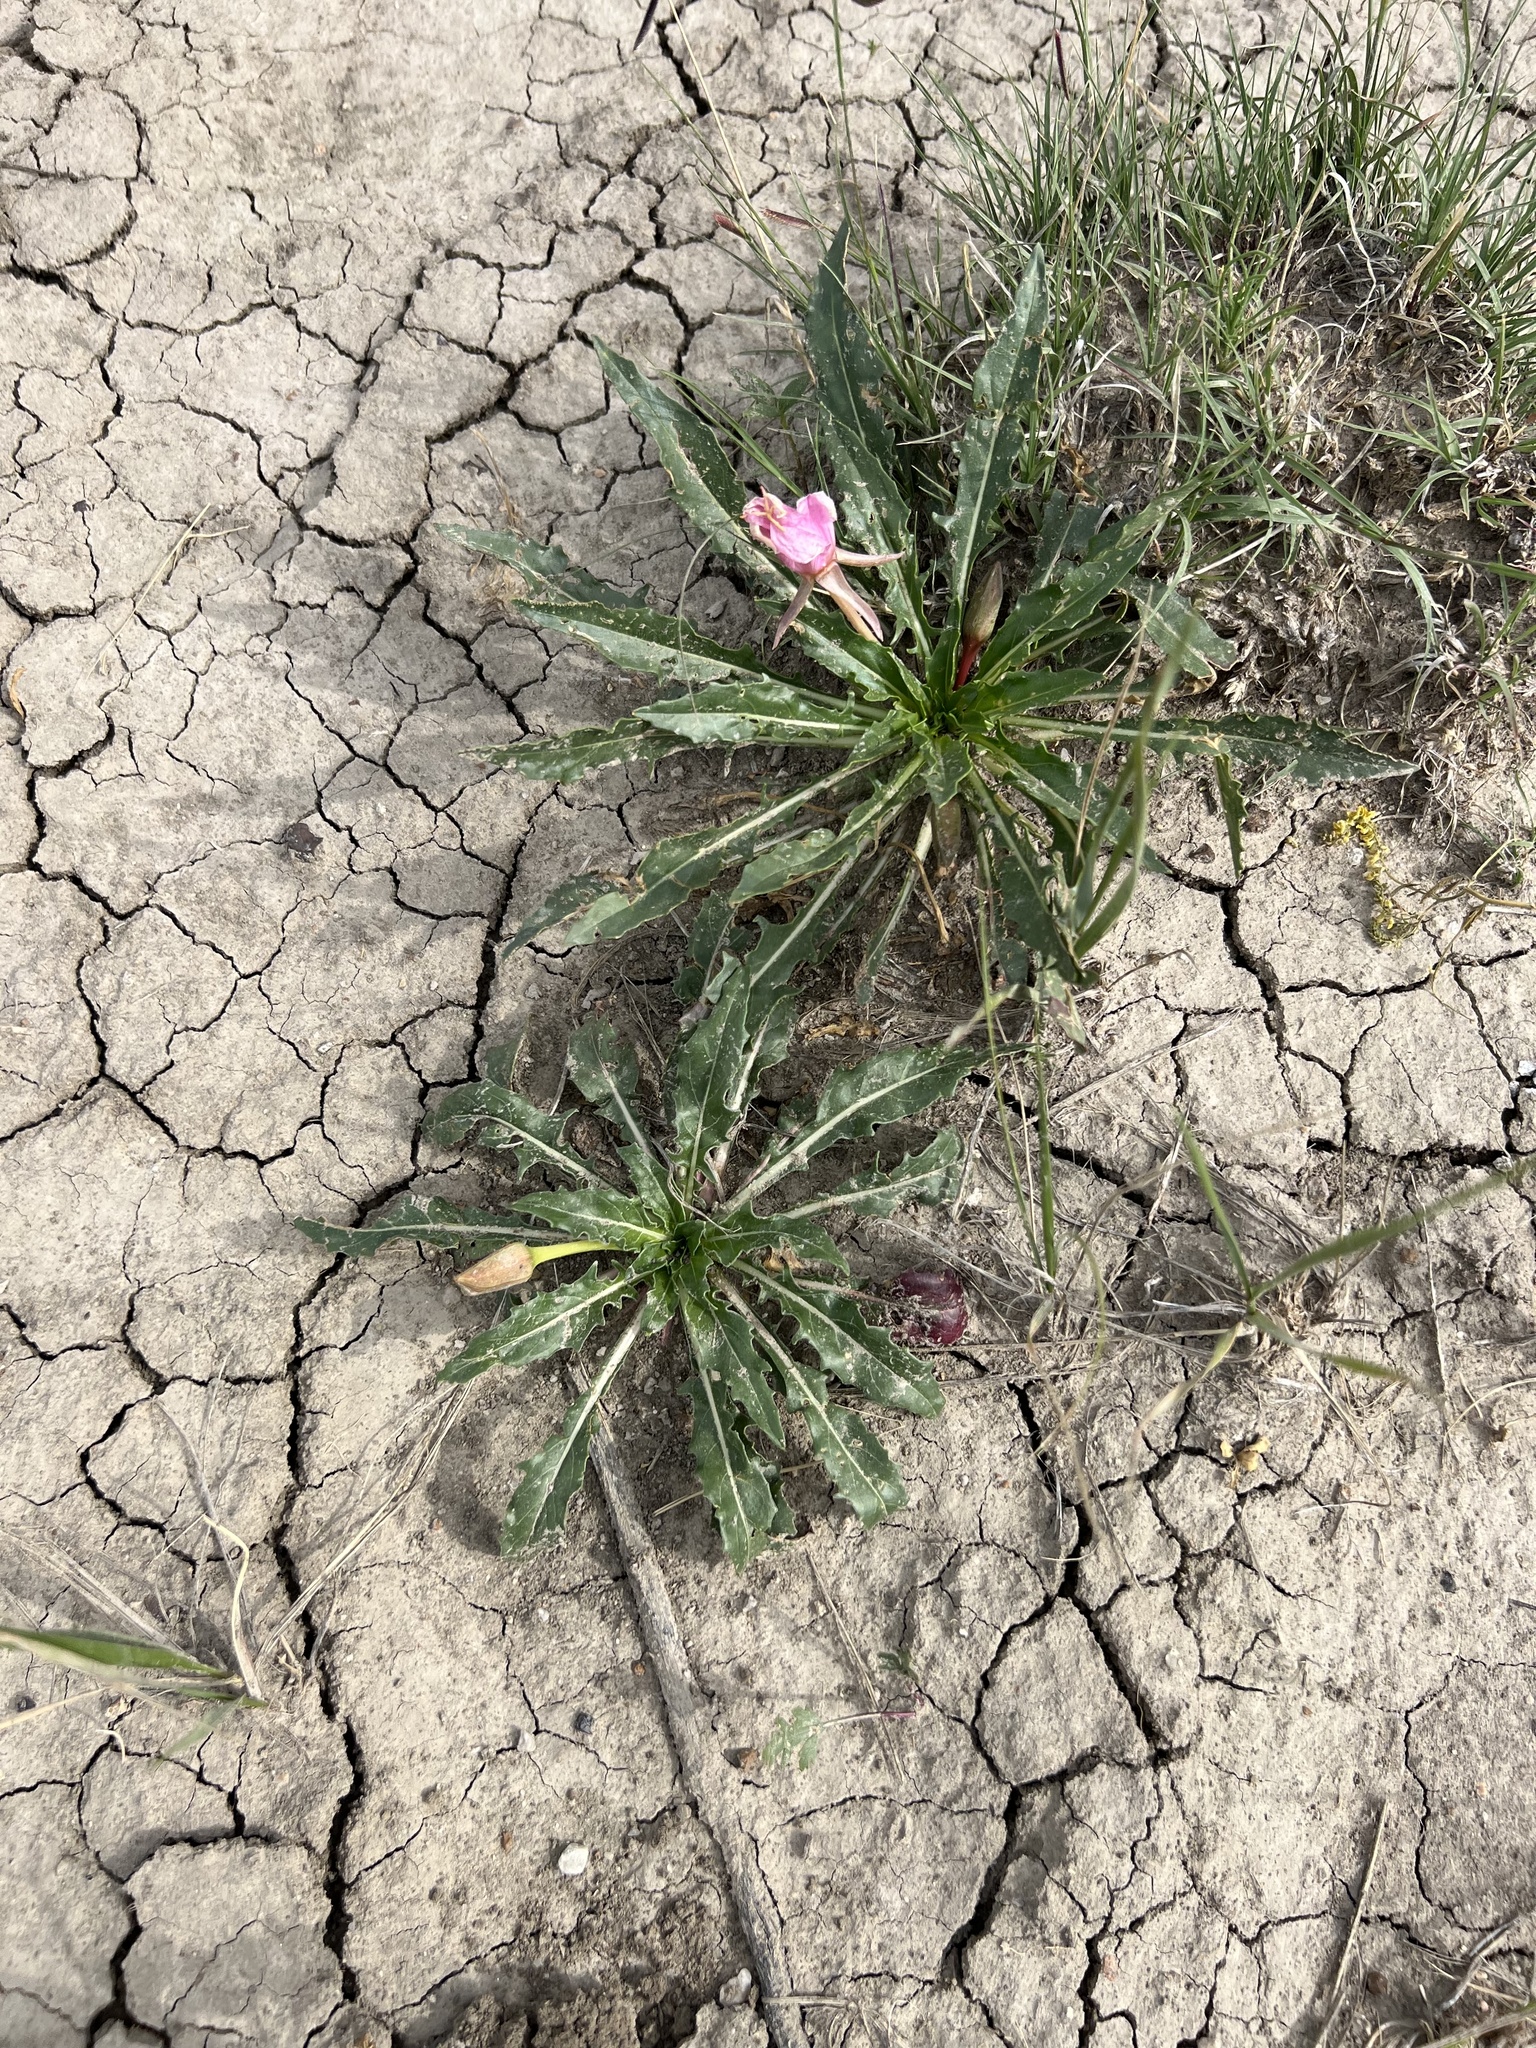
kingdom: Plantae
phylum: Tracheophyta
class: Magnoliopsida
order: Myrtales
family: Onagraceae
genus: Oenothera
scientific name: Oenothera cespitosa
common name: Tufted evening-primrose
